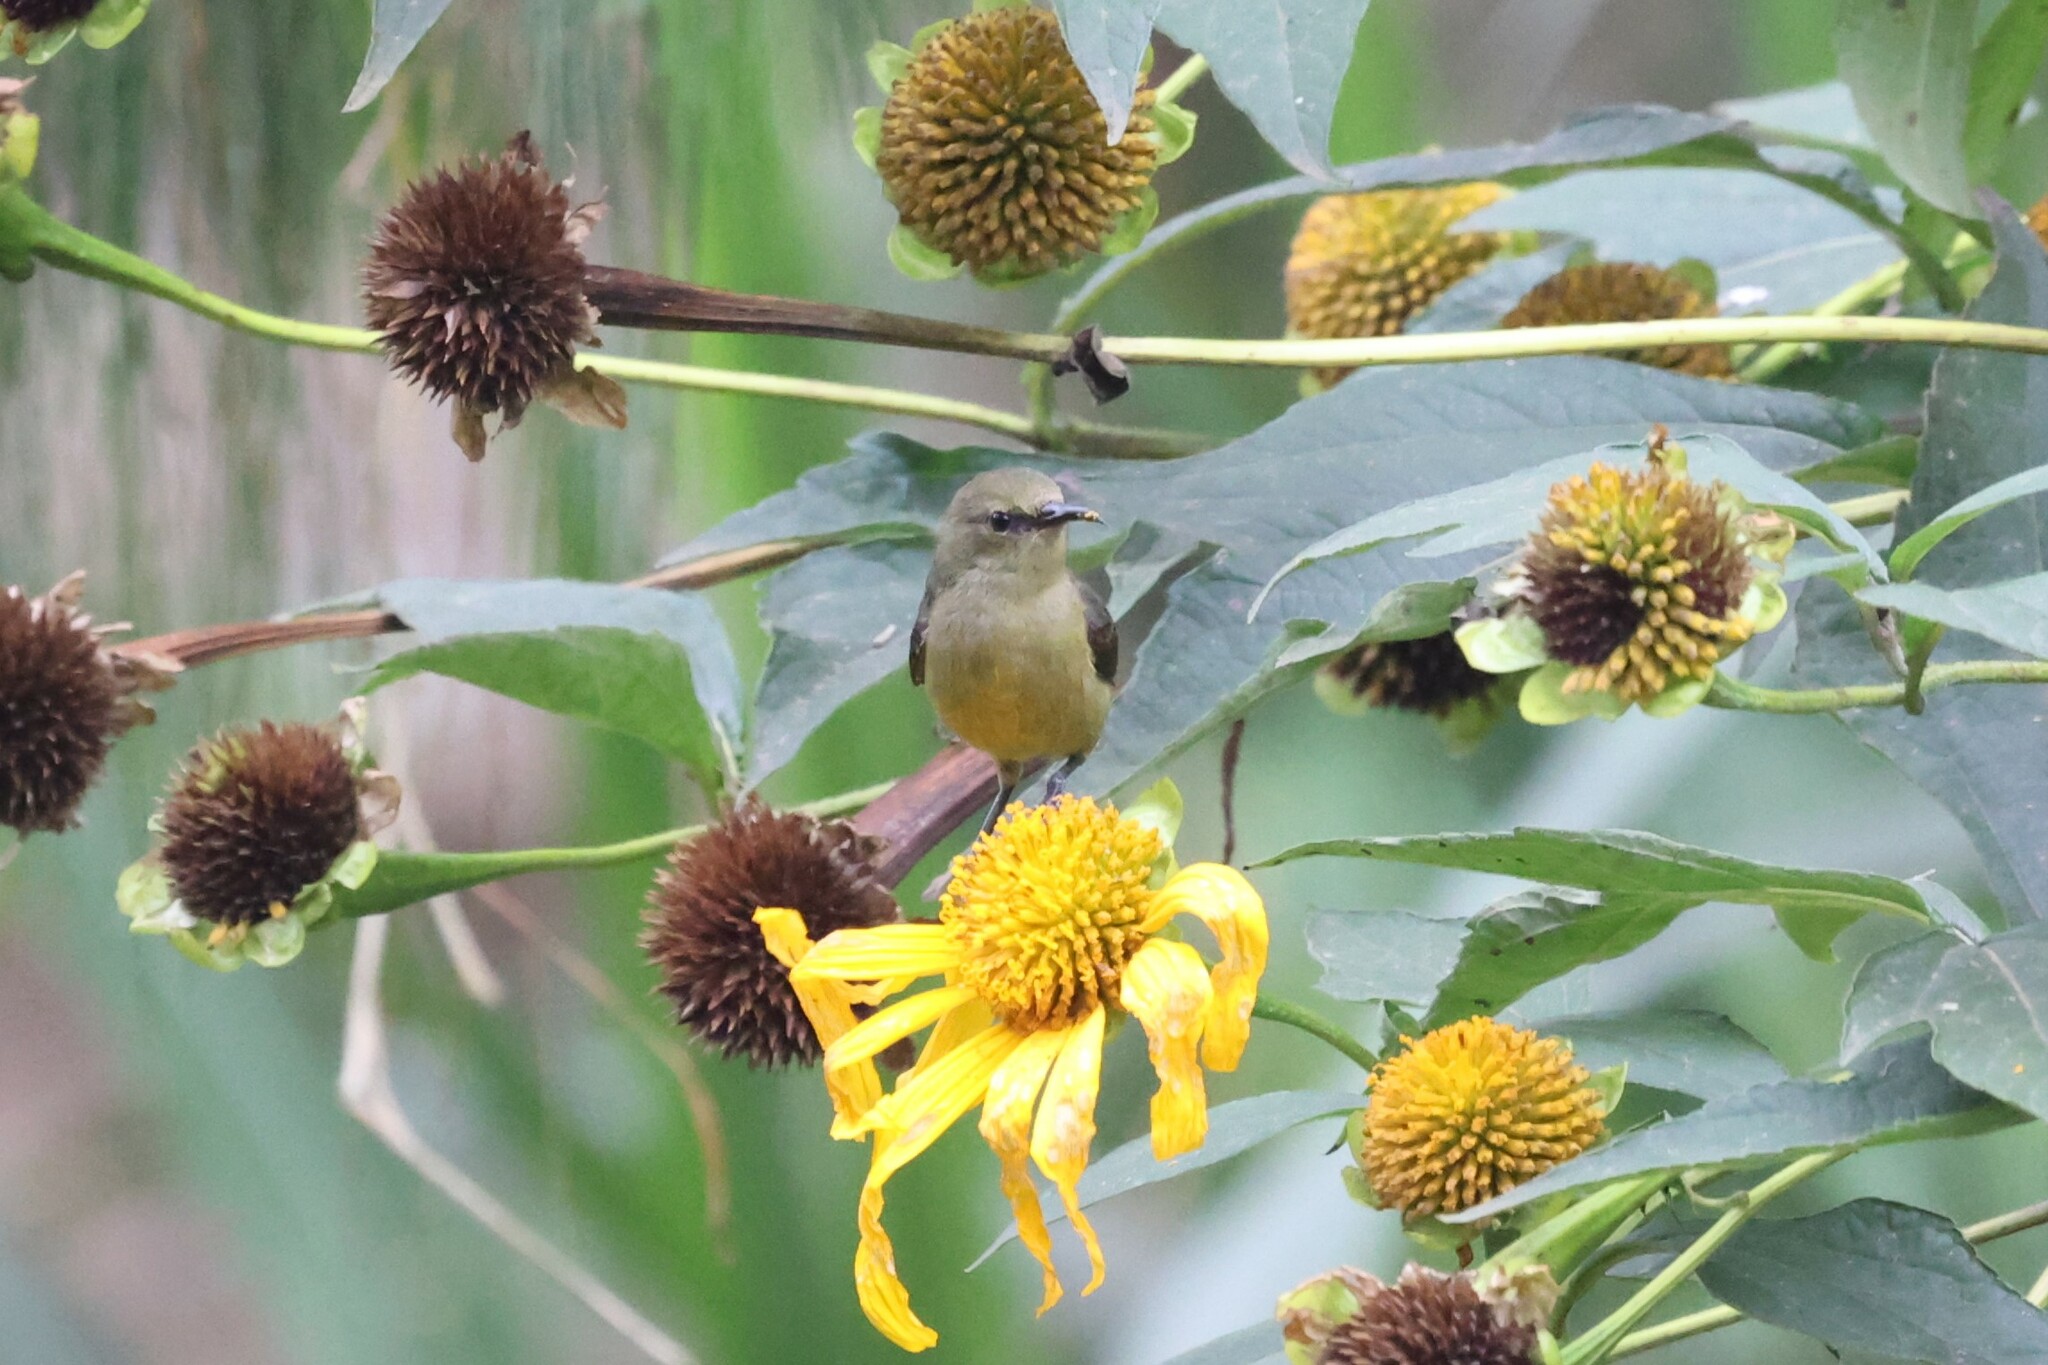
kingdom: Animalia
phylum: Chordata
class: Aves
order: Passeriformes
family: Nectariniidae
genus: Cinnyris
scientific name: Cinnyris reichenowi
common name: Northern double-collared sunbird
